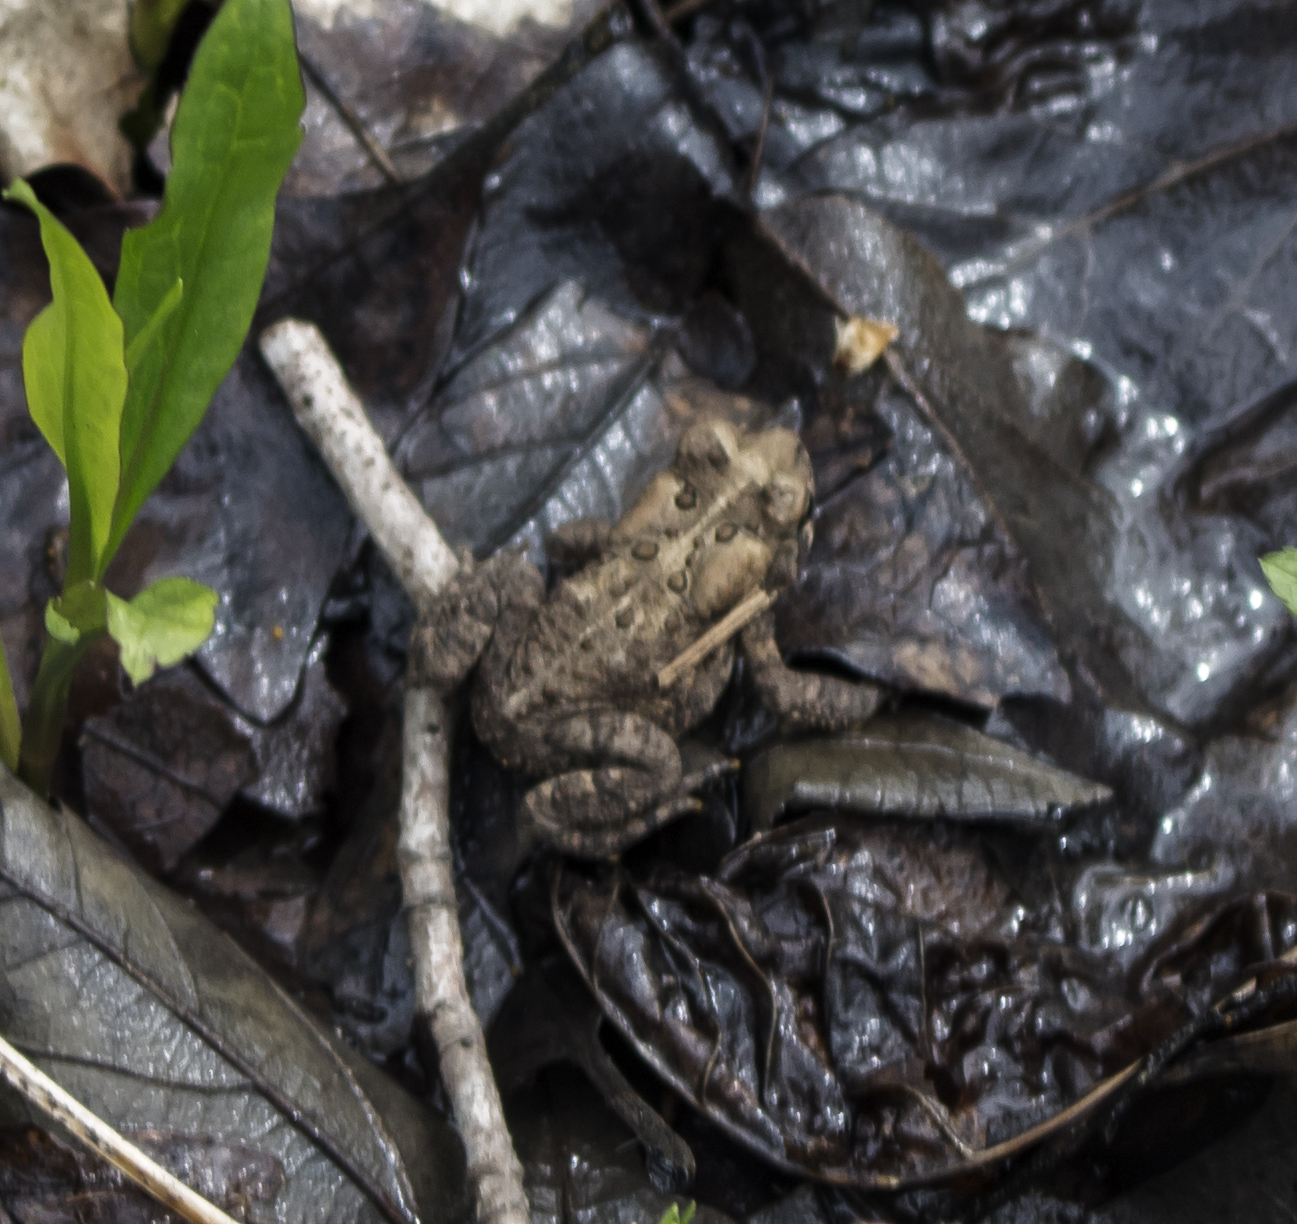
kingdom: Animalia
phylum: Chordata
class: Amphibia
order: Anura
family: Bufonidae
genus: Anaxyrus
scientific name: Anaxyrus americanus
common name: American toad
